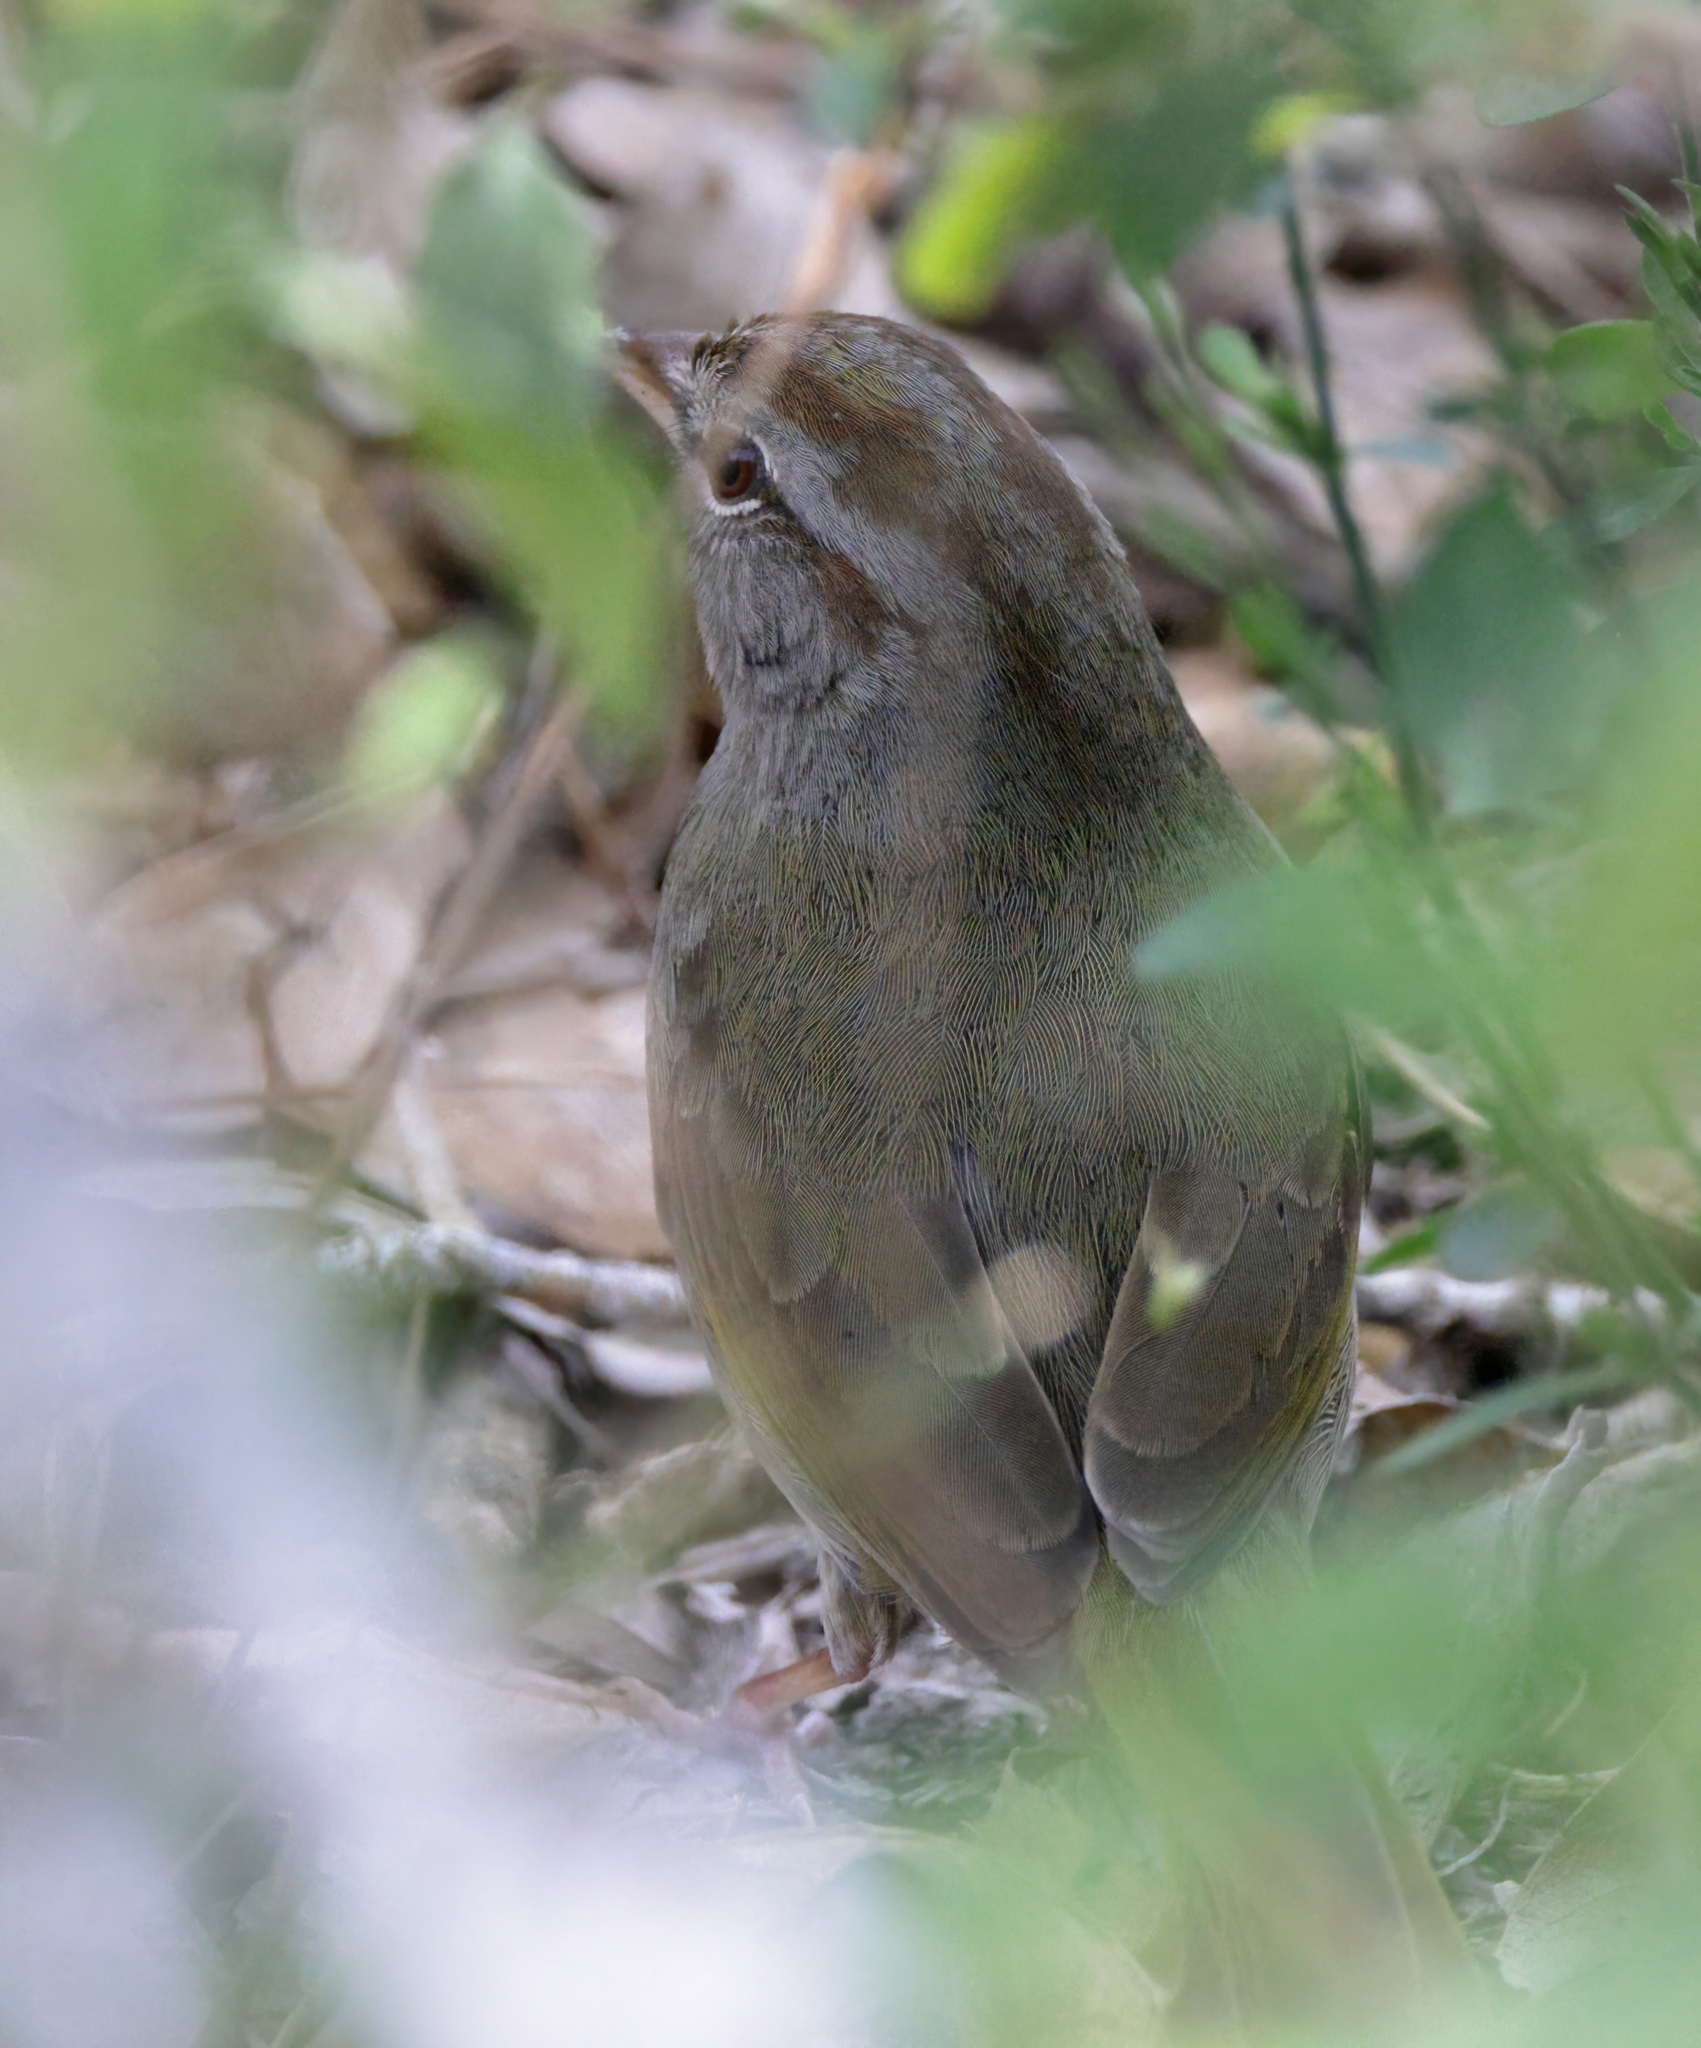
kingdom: Animalia
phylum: Chordata
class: Aves
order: Passeriformes
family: Passerellidae
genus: Arremonops
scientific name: Arremonops rufivirgatus
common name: Olive sparrow
